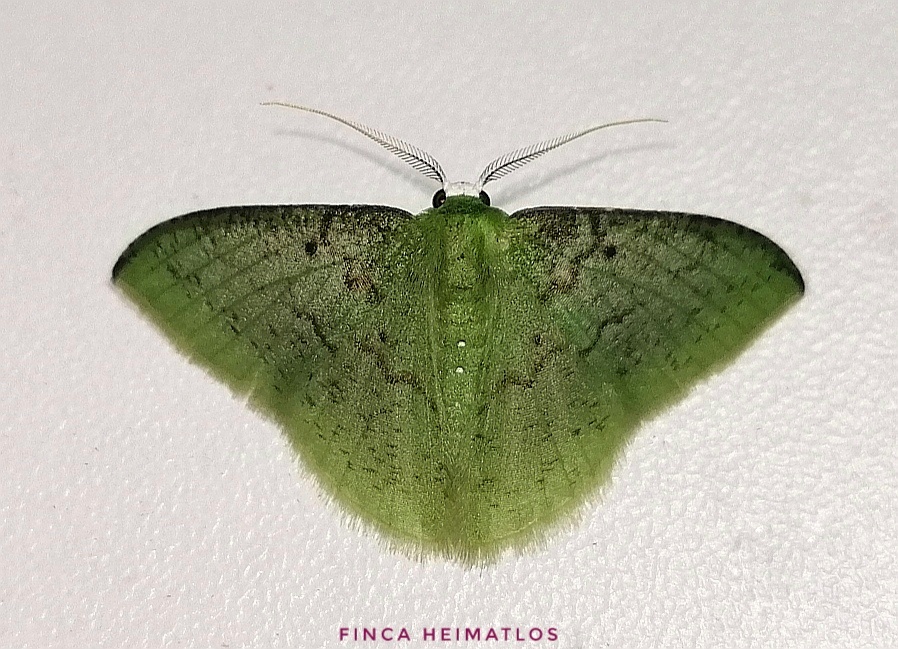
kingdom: Animalia
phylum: Arthropoda
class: Insecta
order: Lepidoptera
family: Geometridae
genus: Tachyphyle
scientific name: Tachyphyle undilineata
